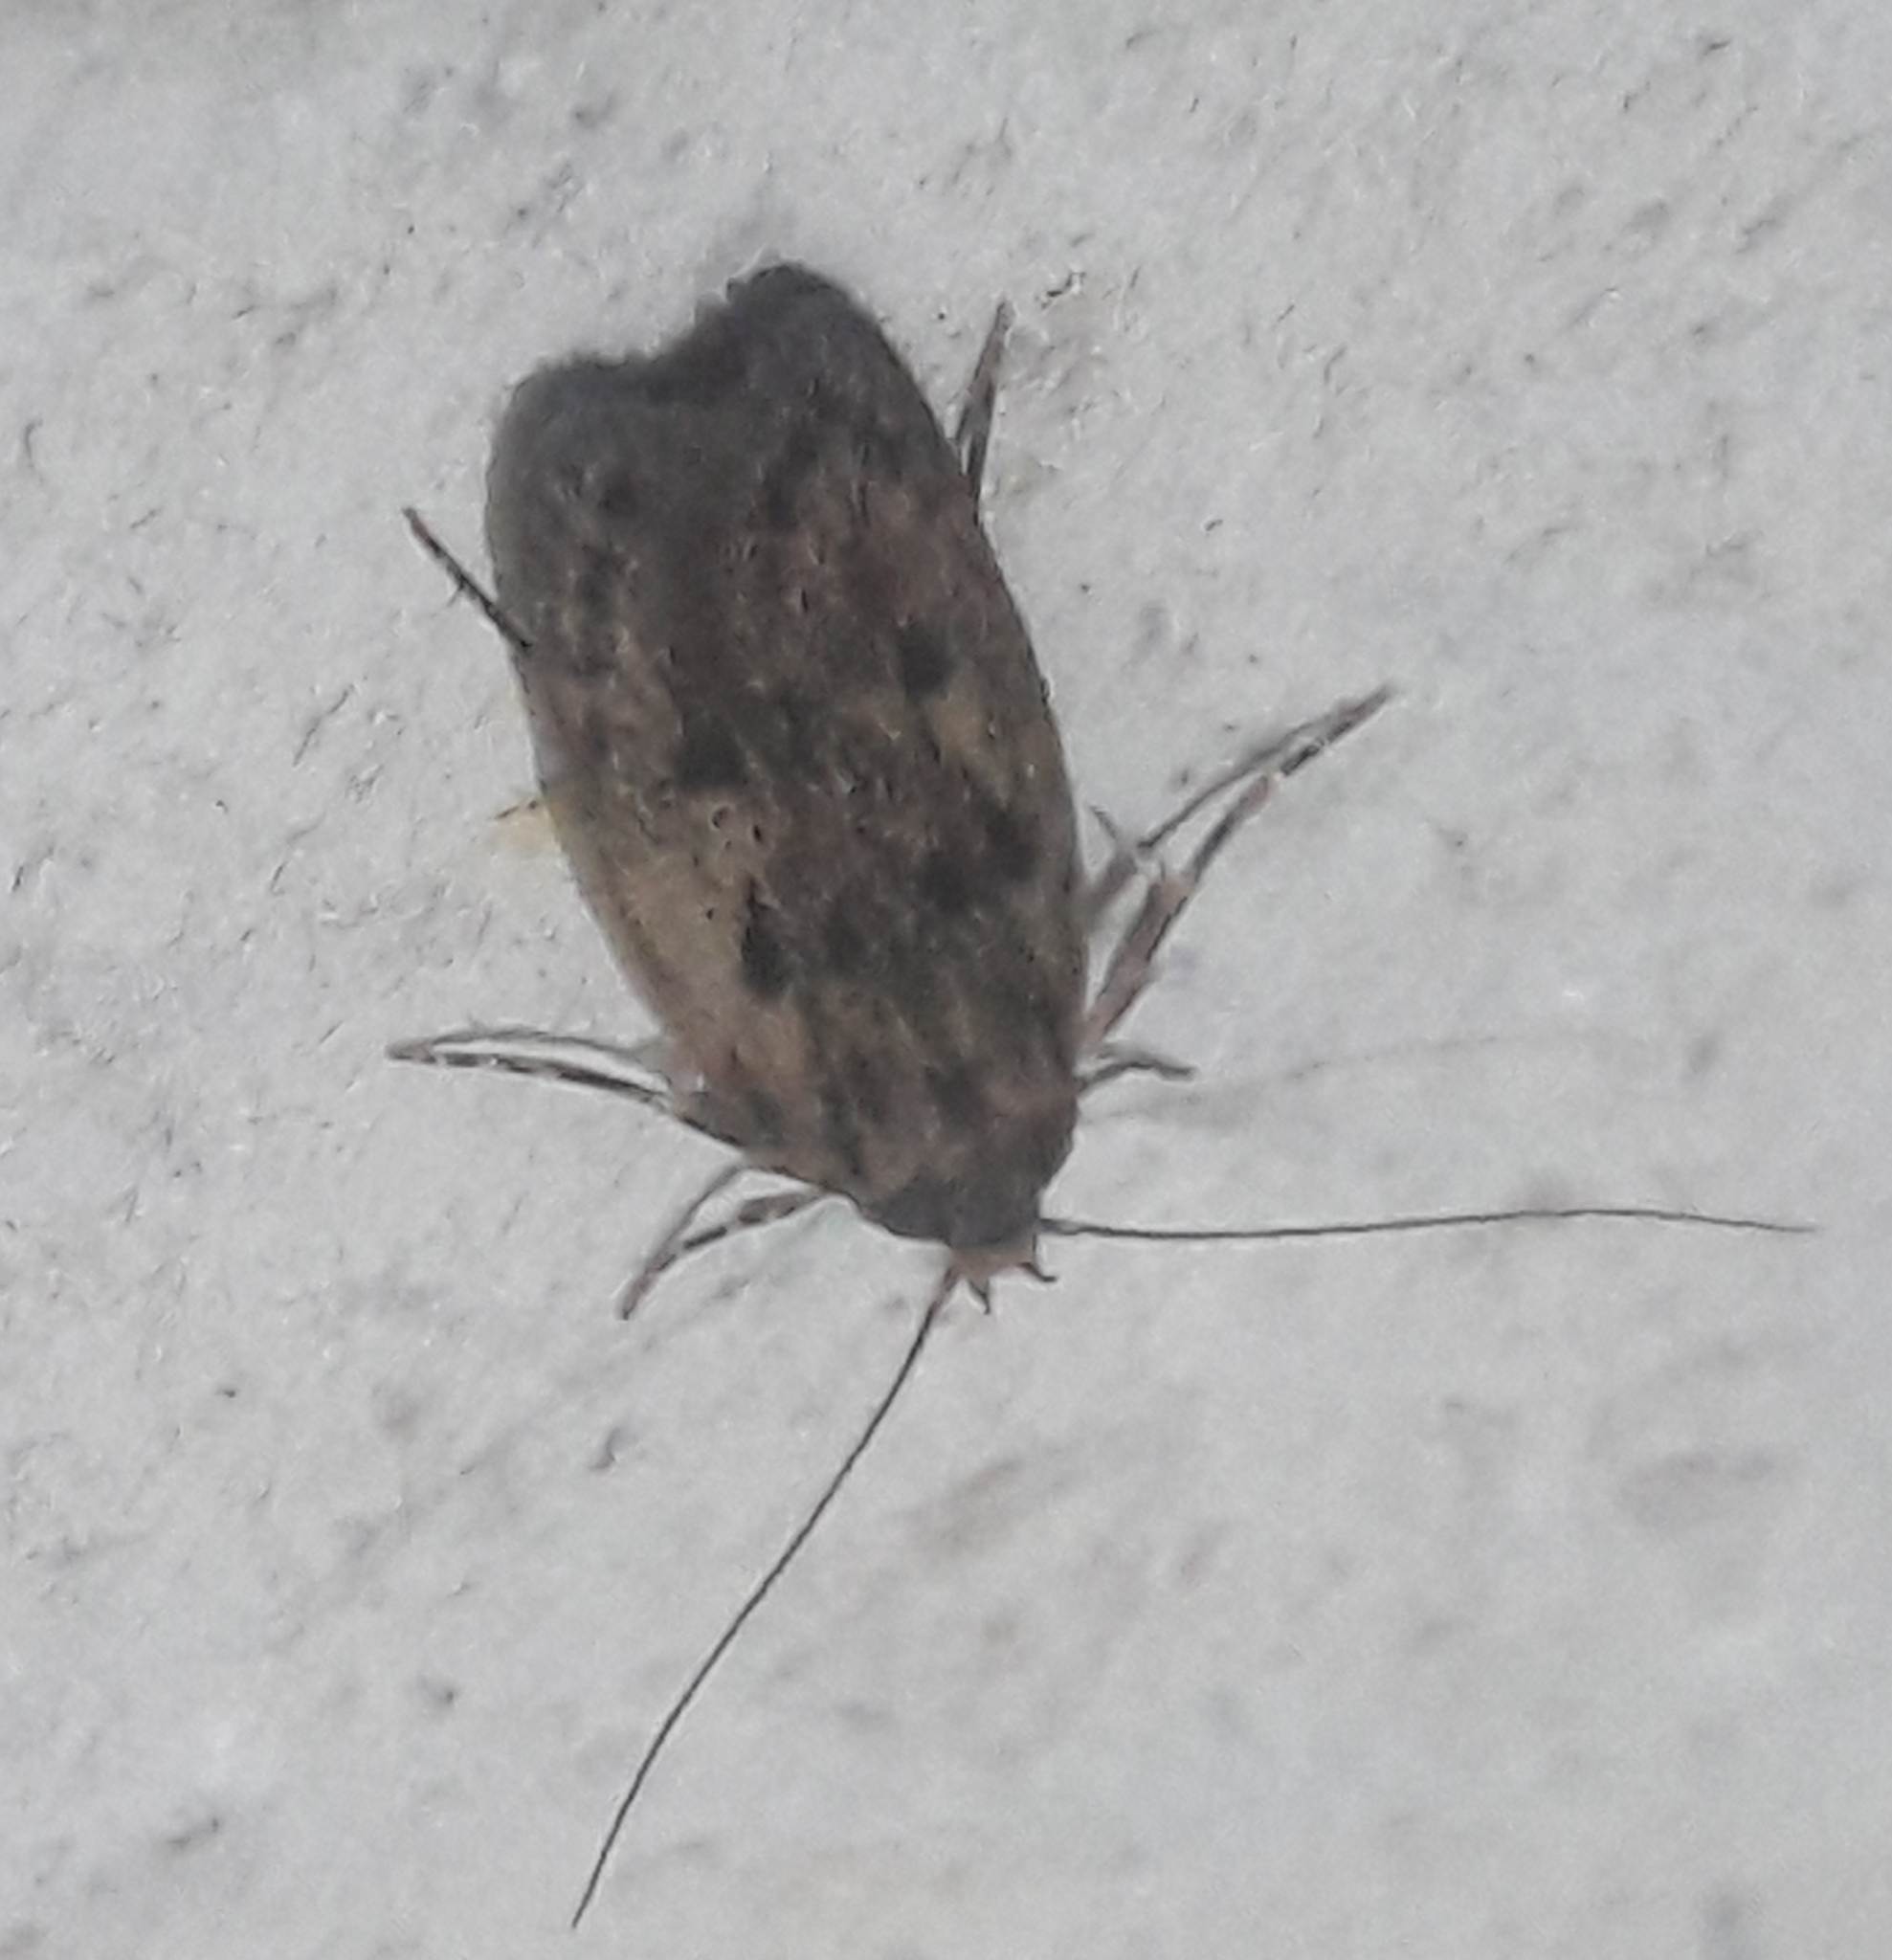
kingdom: Animalia
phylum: Arthropoda
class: Insecta
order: Lepidoptera
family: Oecophoridae
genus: Hofmannophila
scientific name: Hofmannophila pseudospretella
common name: Brown house moth
